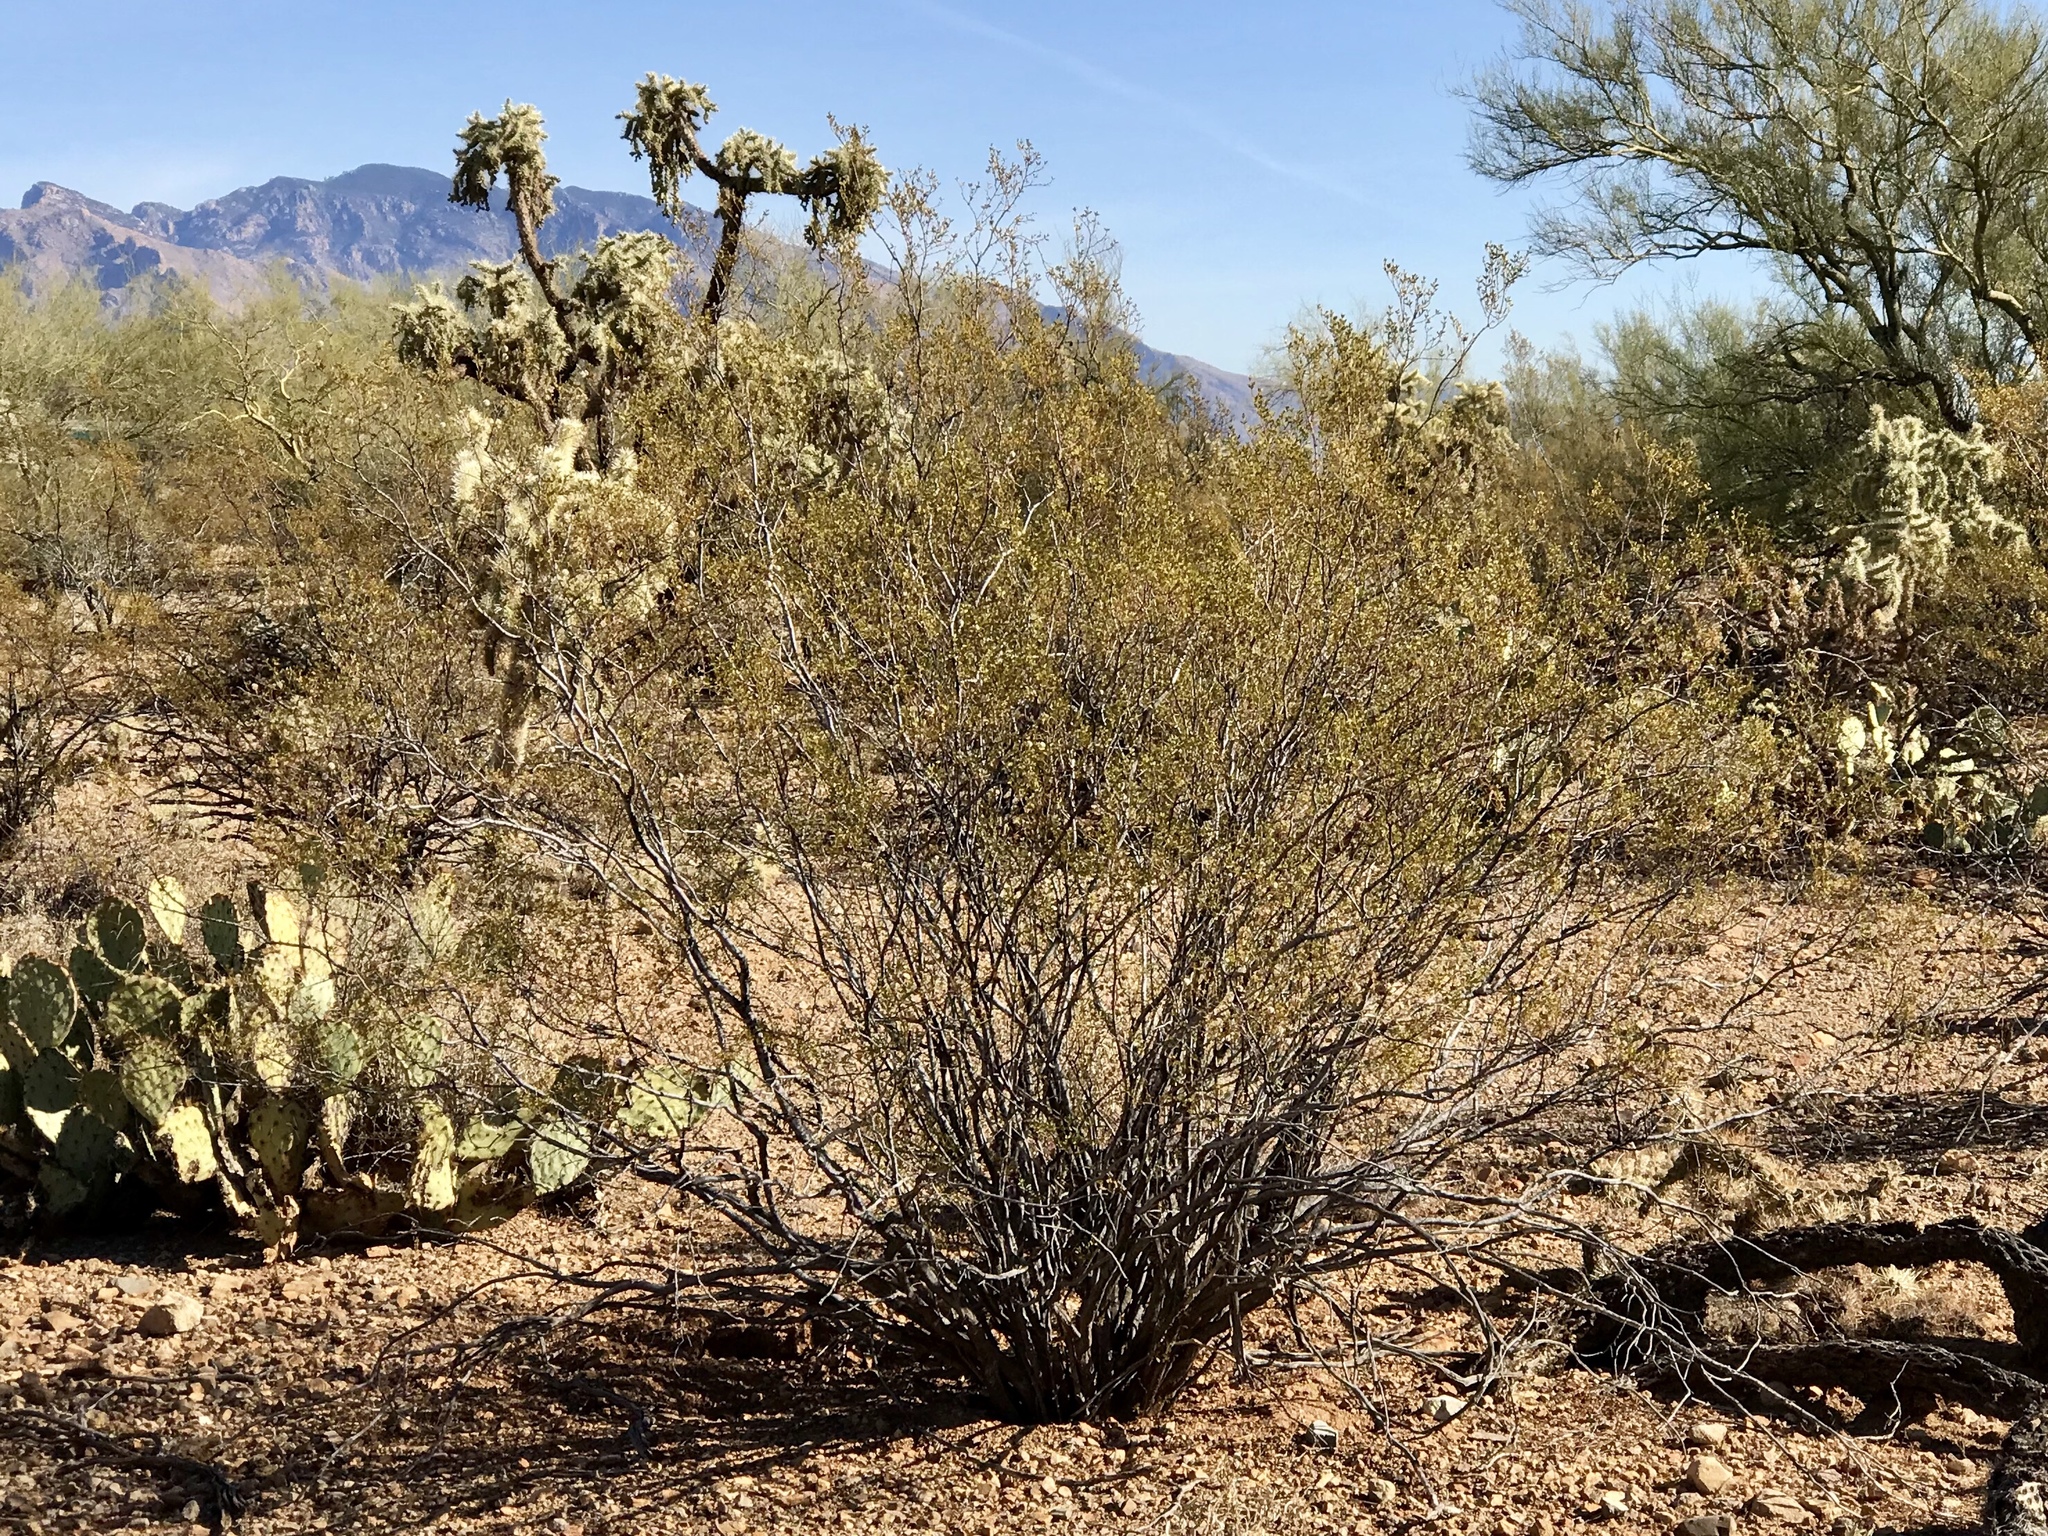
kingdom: Plantae
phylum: Tracheophyta
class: Magnoliopsida
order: Zygophyllales
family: Zygophyllaceae
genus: Larrea
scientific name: Larrea tridentata
